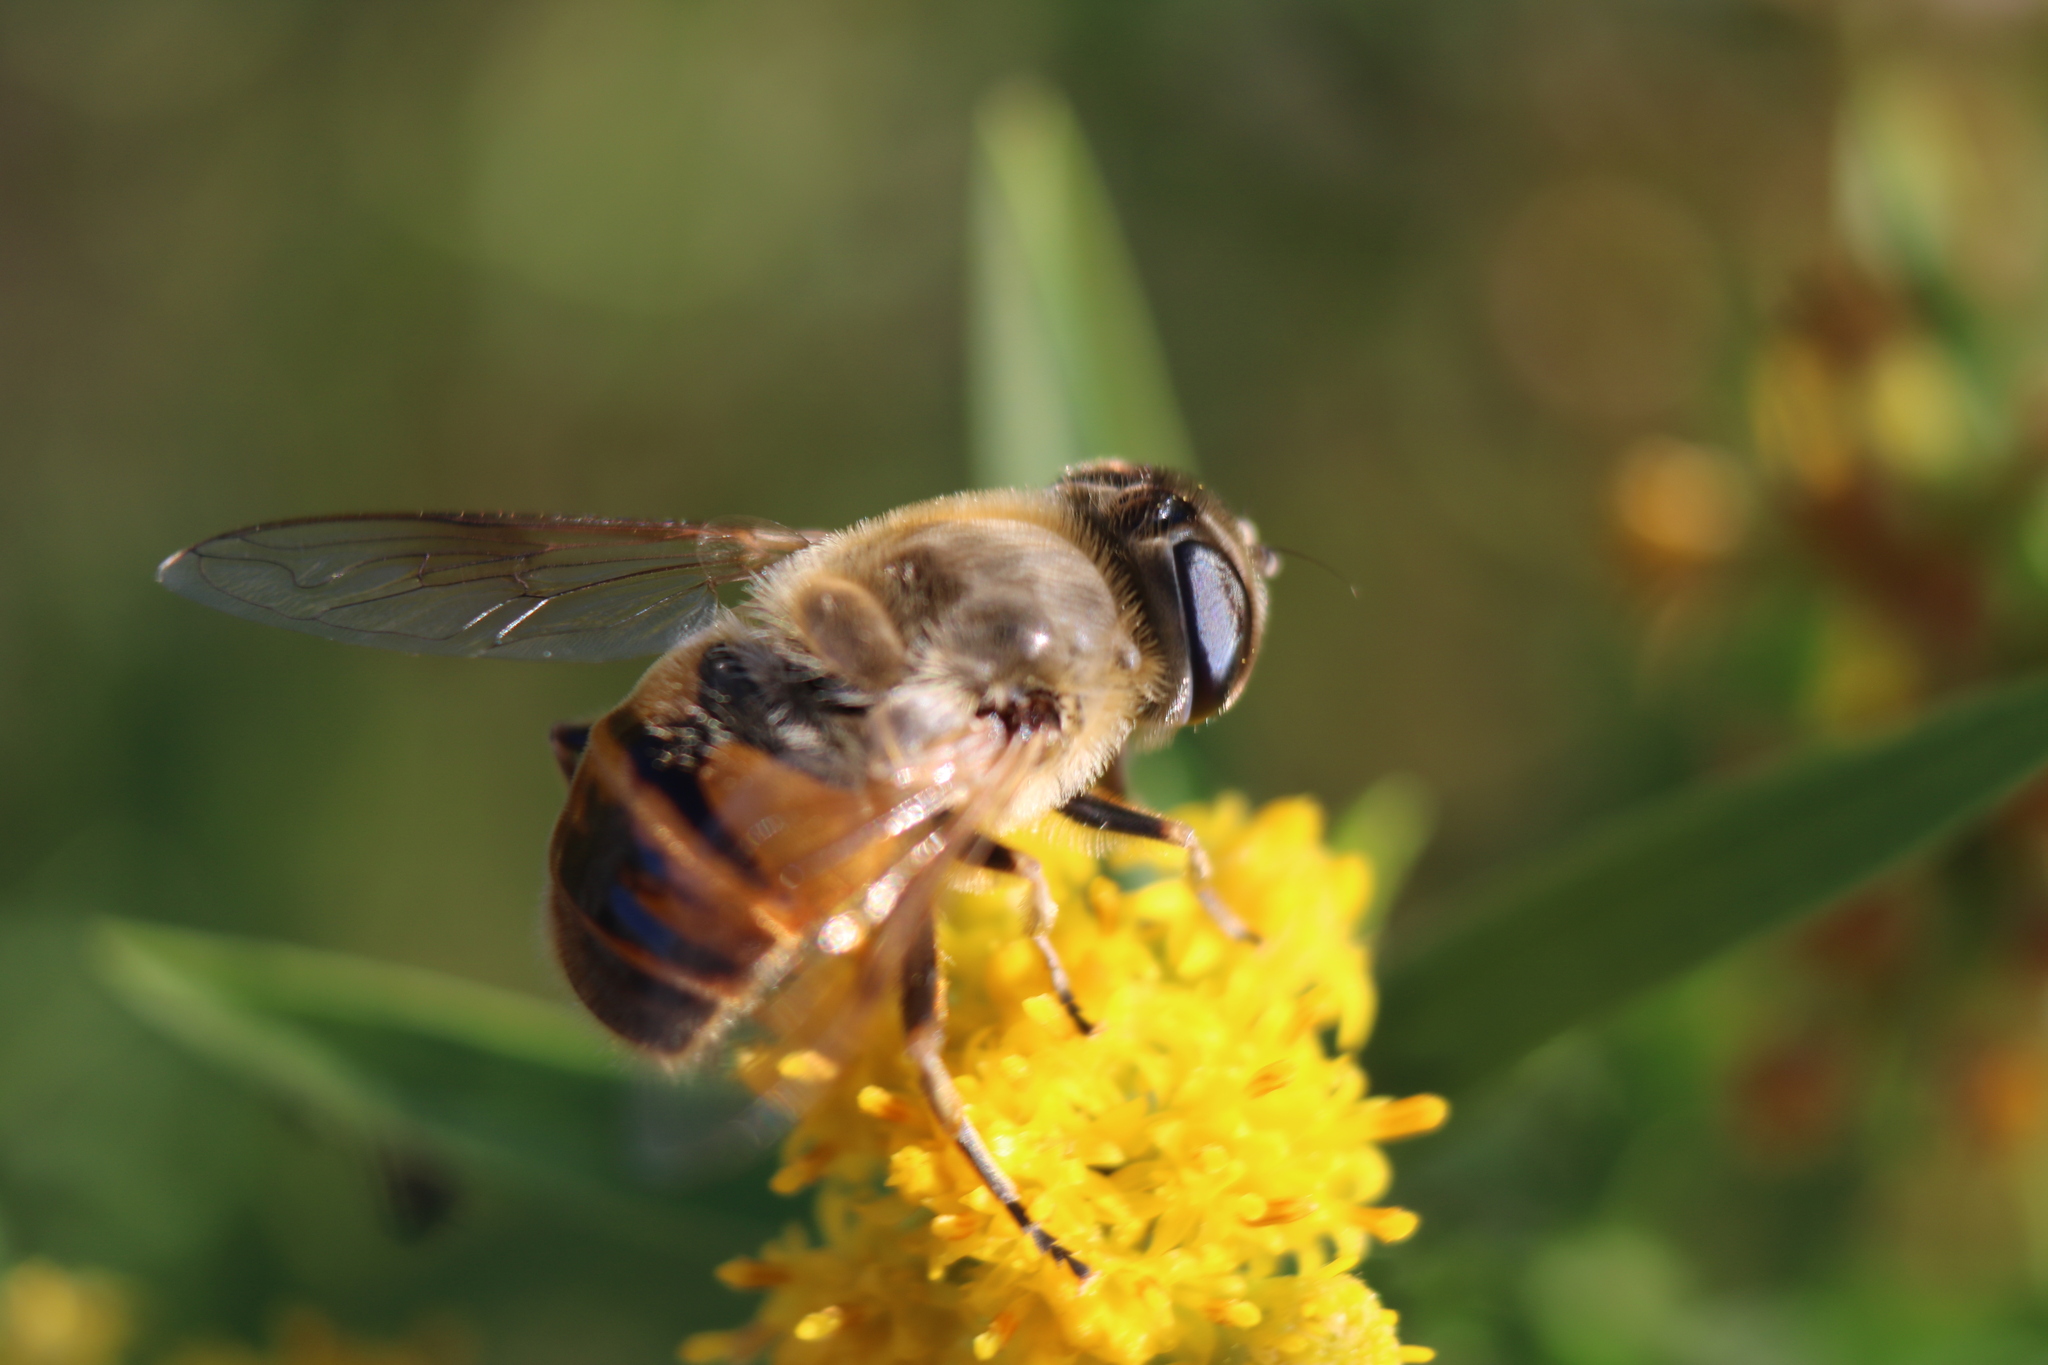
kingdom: Animalia
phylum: Arthropoda
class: Insecta
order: Diptera
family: Syrphidae
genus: Eristalis
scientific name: Eristalis tenax
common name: Drone fly
